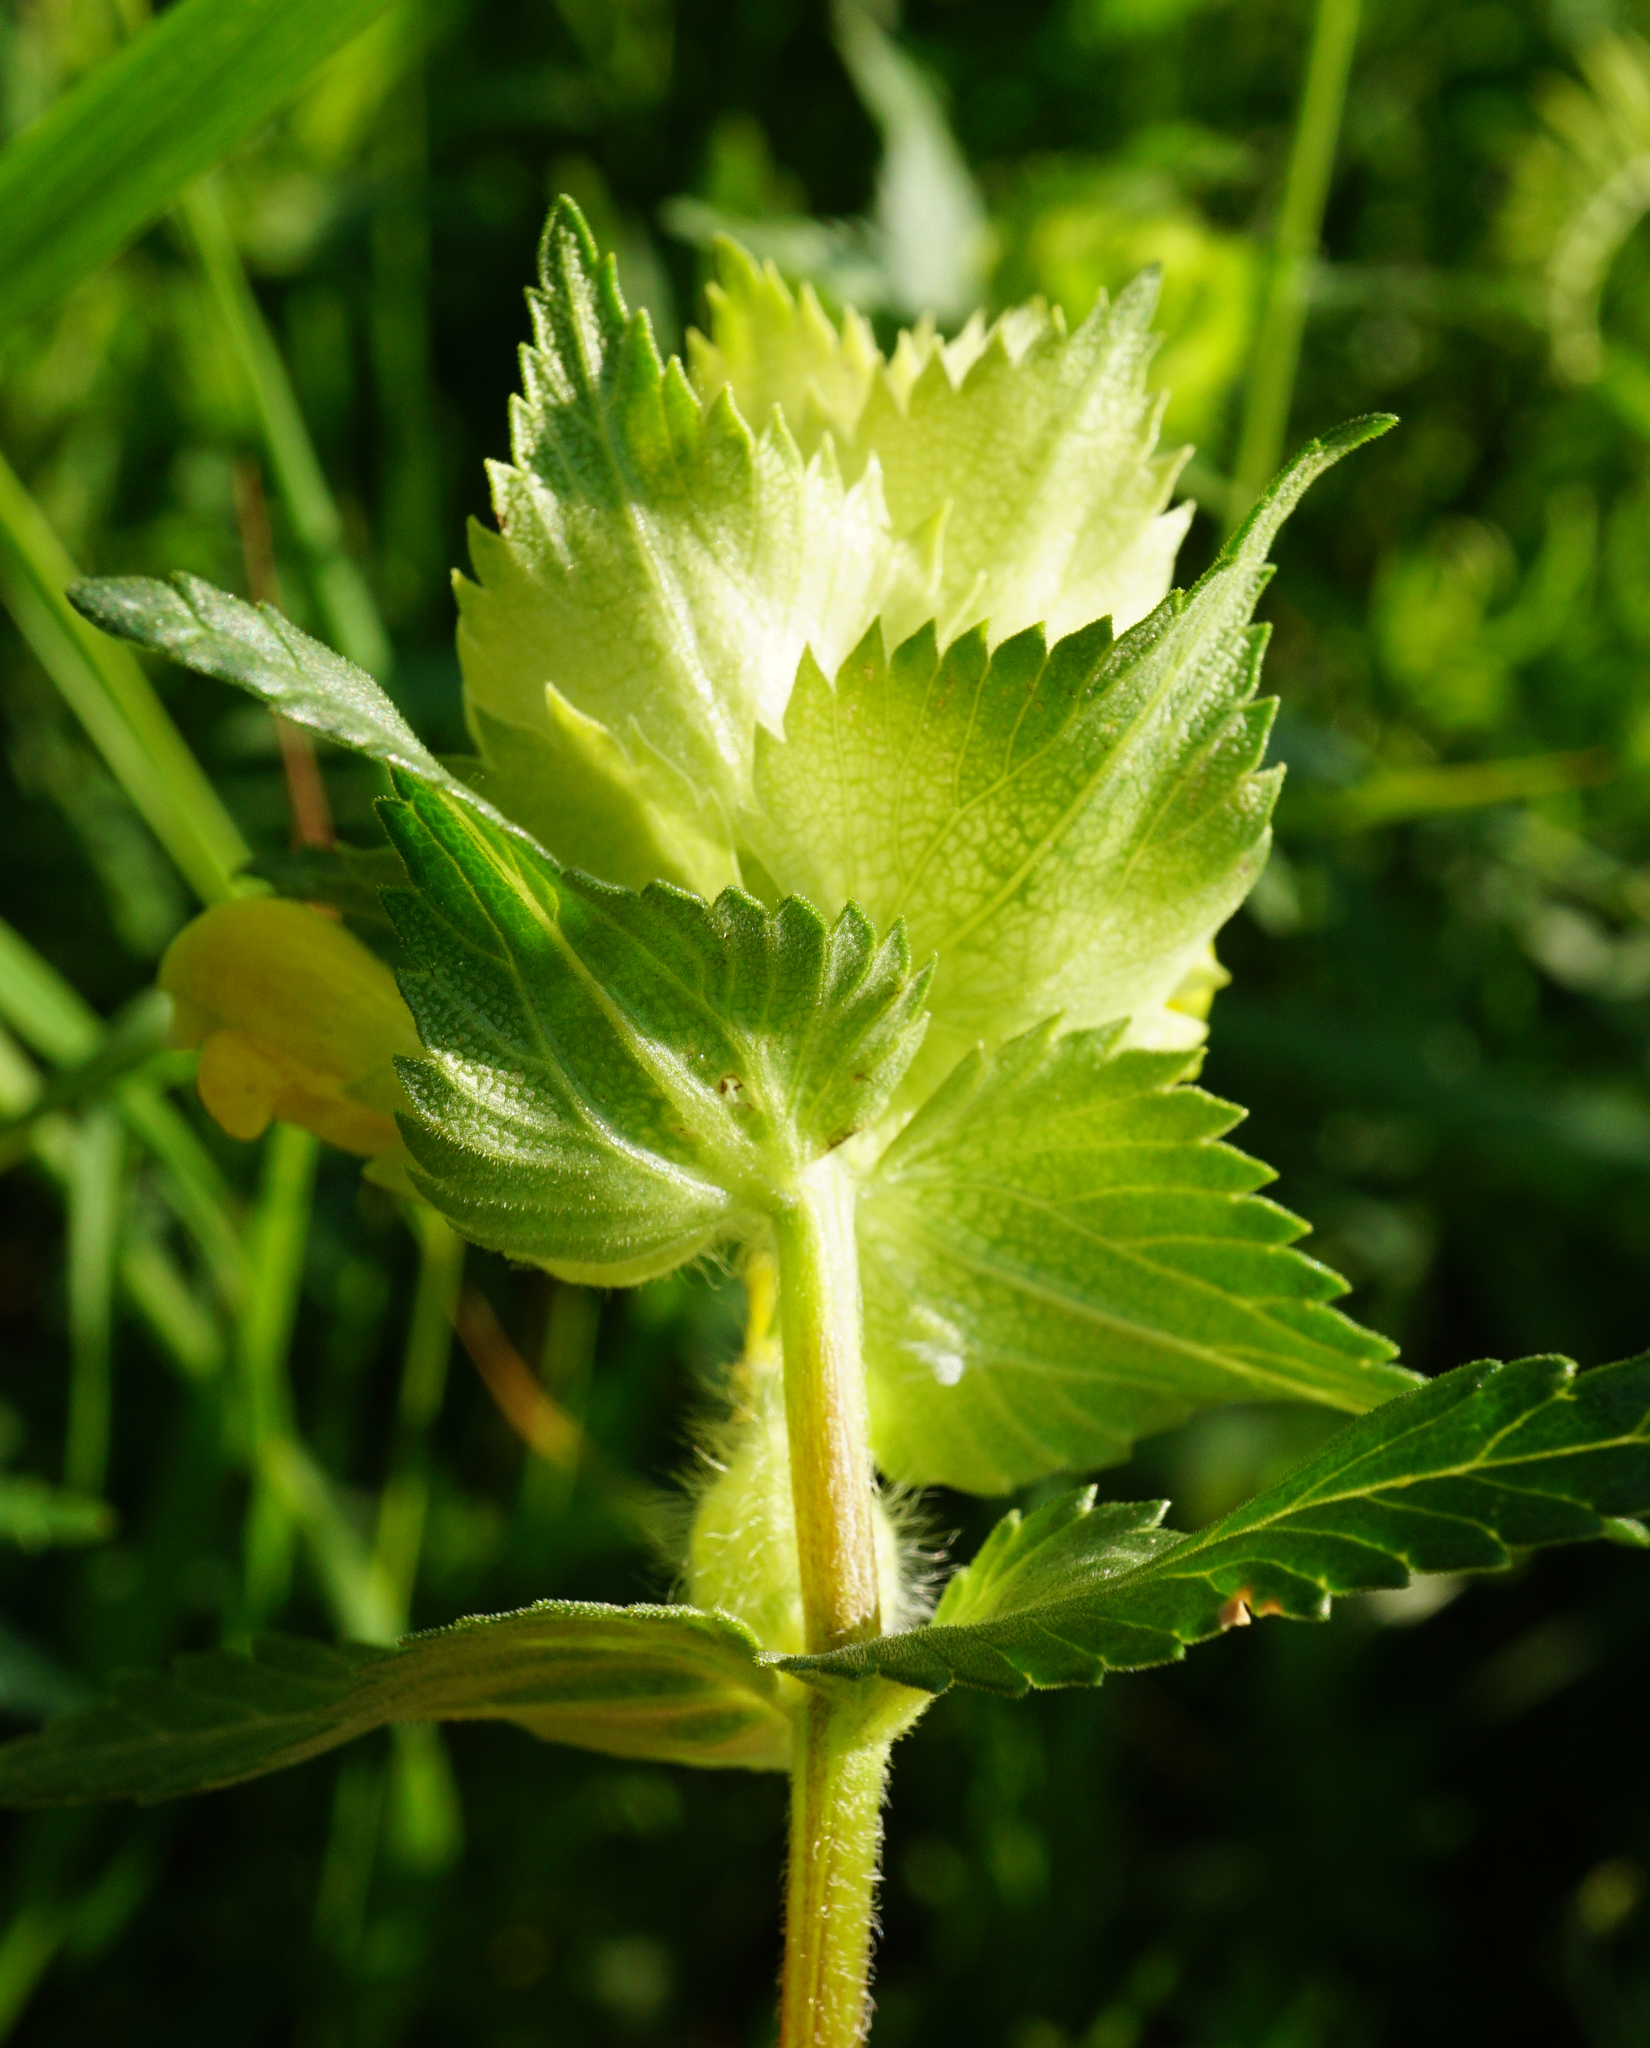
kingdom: Plantae
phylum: Tracheophyta
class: Magnoliopsida
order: Lamiales
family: Orobanchaceae
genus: Rhinanthus
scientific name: Rhinanthus alectorolophus
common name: Greater yellow-rattle
